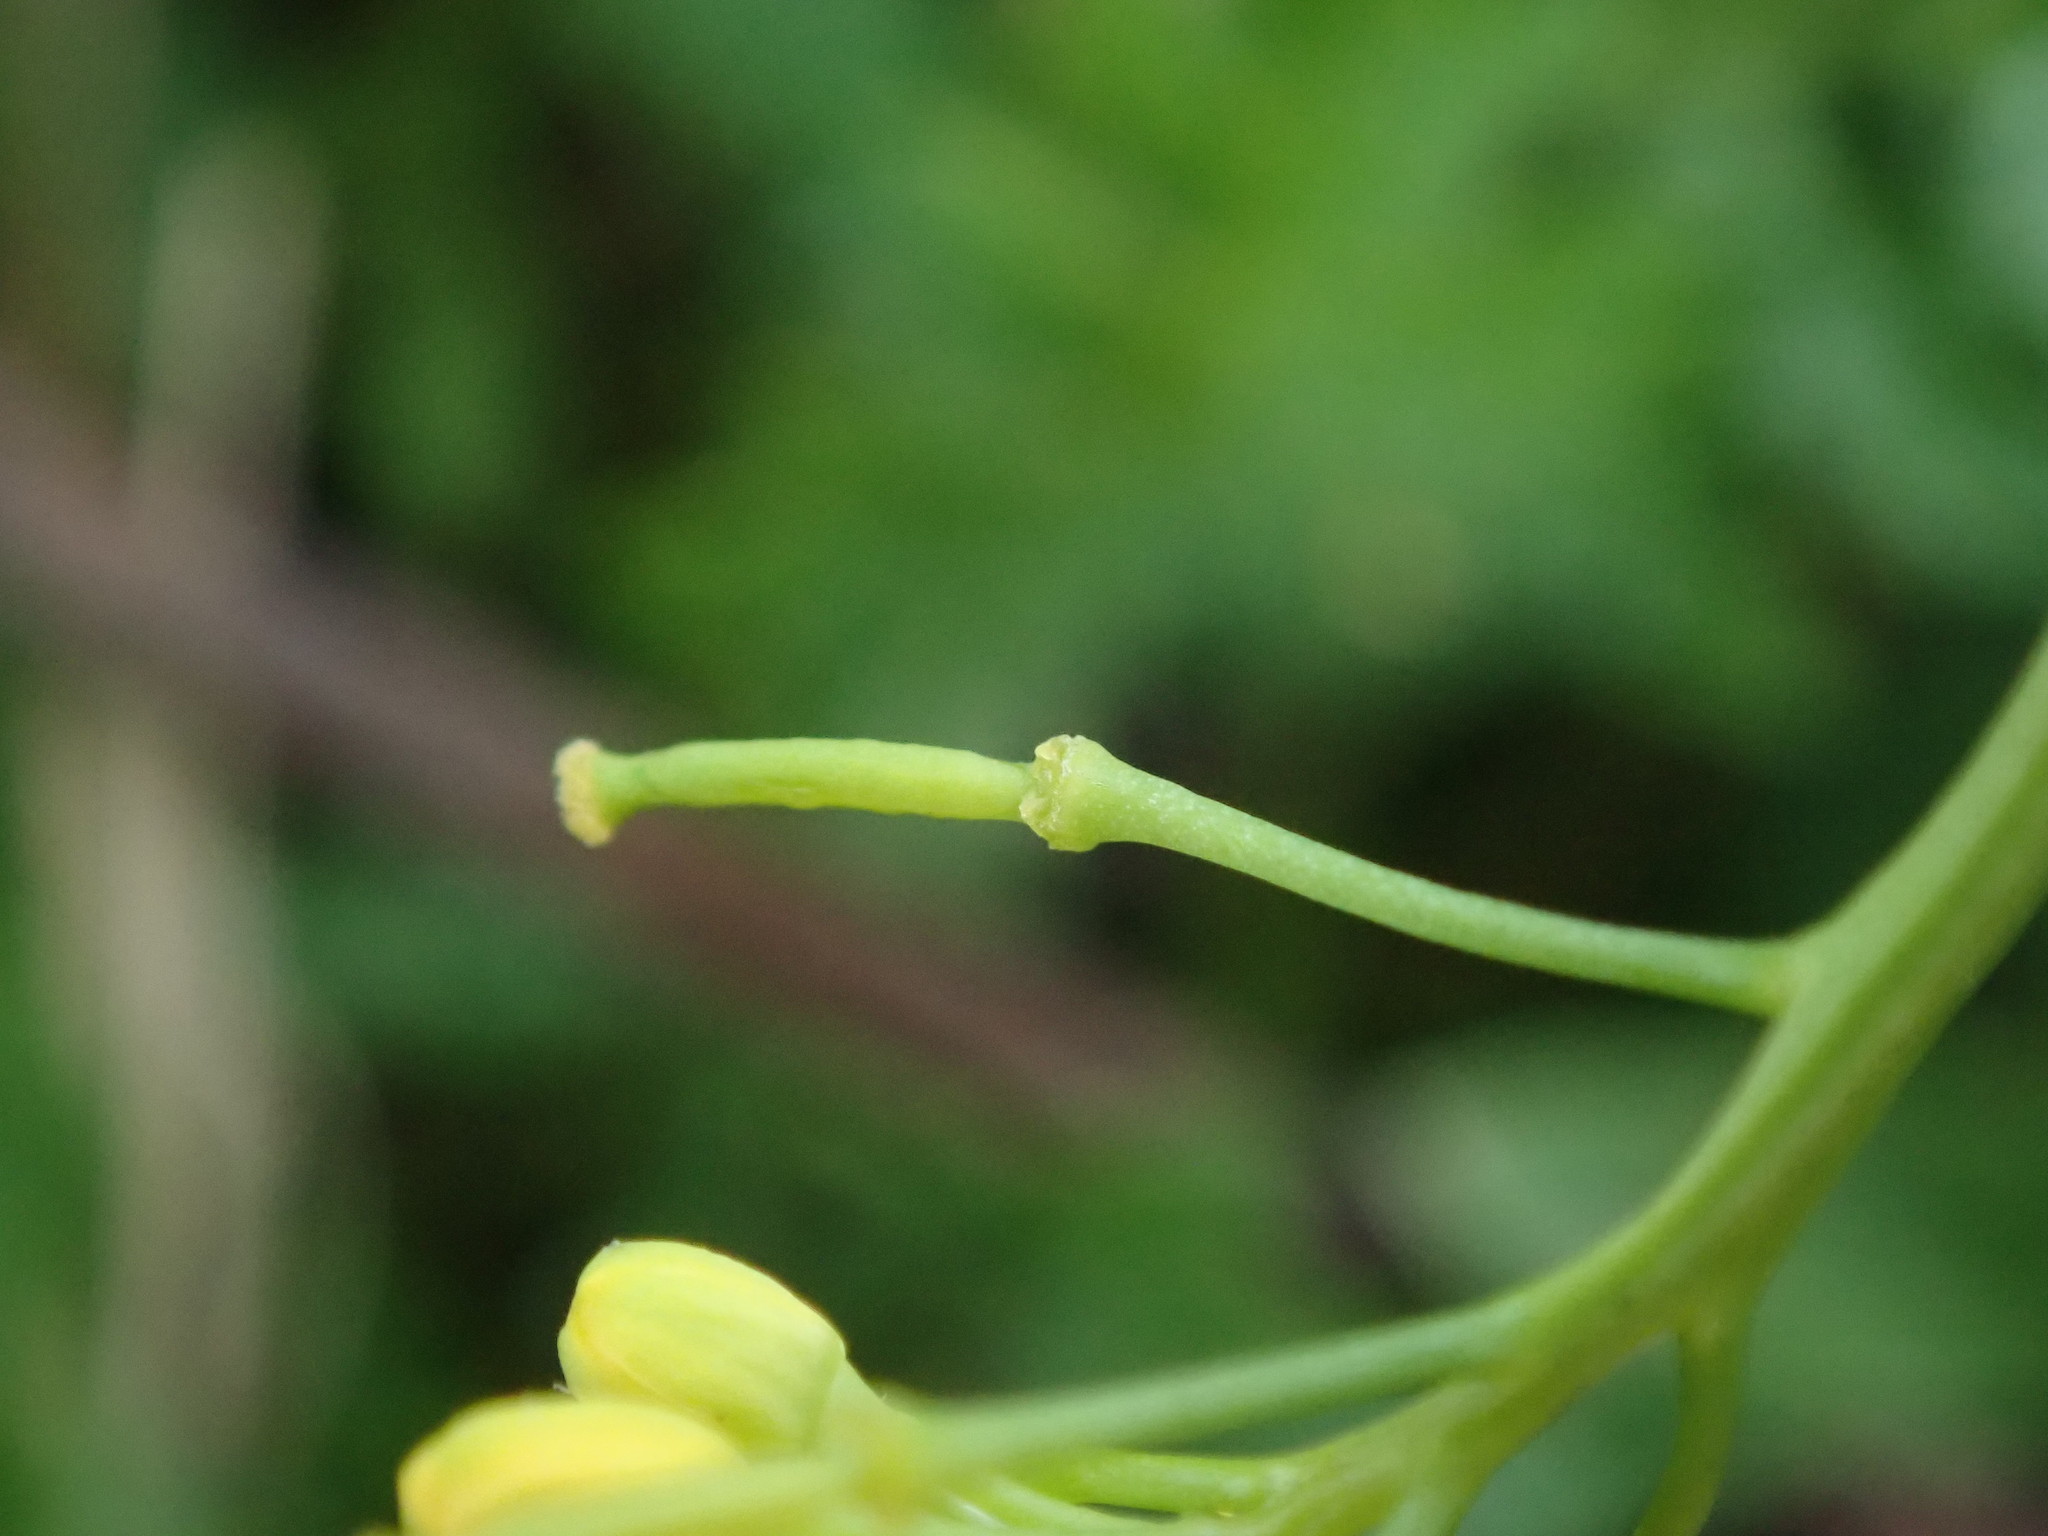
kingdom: Plantae
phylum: Tracheophyta
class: Magnoliopsida
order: Brassicales
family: Brassicaceae
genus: Rorippa
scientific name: Rorippa sylvestris
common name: Creeping yellowcress
